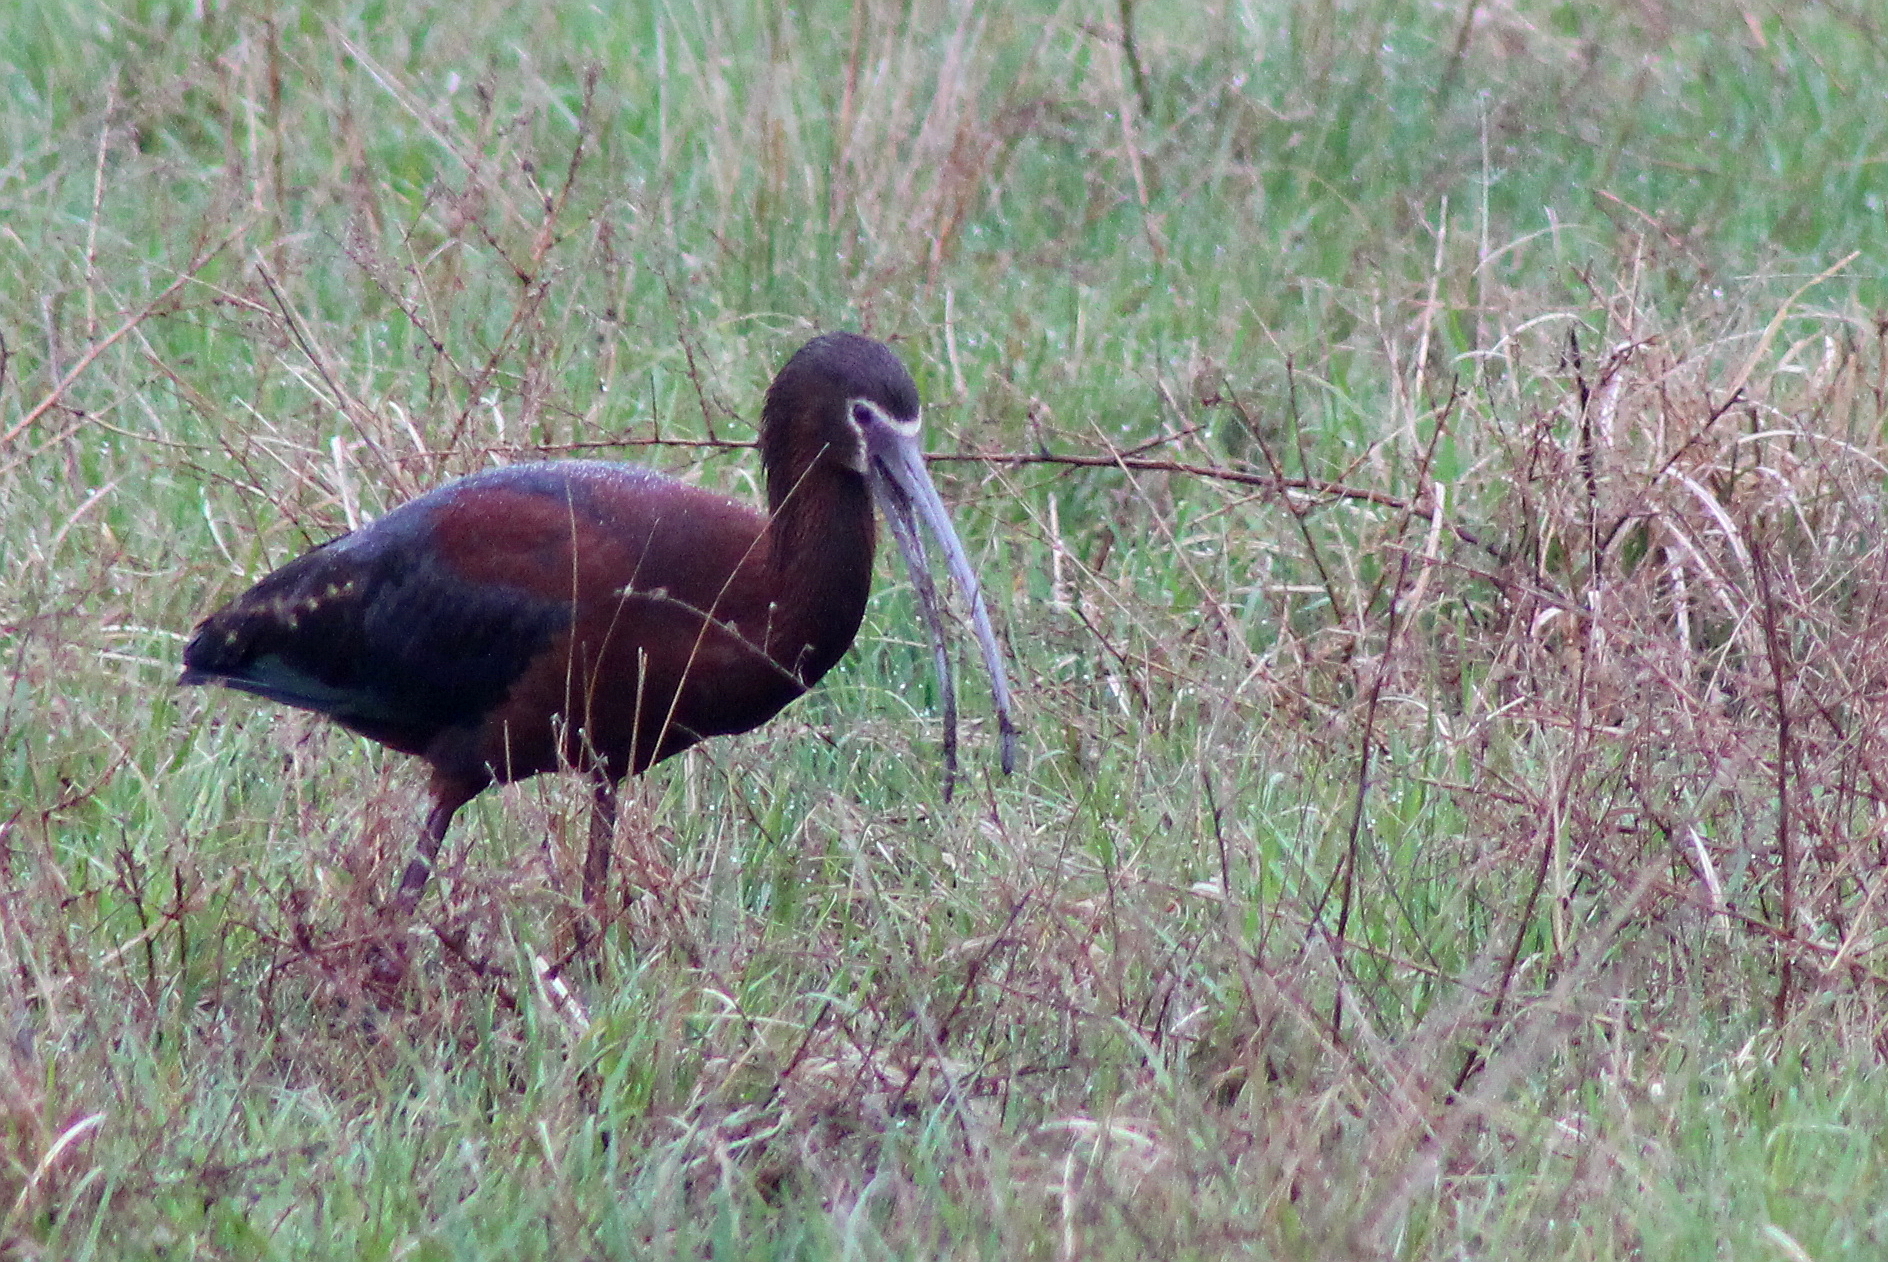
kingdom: Animalia
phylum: Chordata
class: Aves
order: Pelecaniformes
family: Threskiornithidae
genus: Plegadis
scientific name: Plegadis chihi
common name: White-faced ibis
